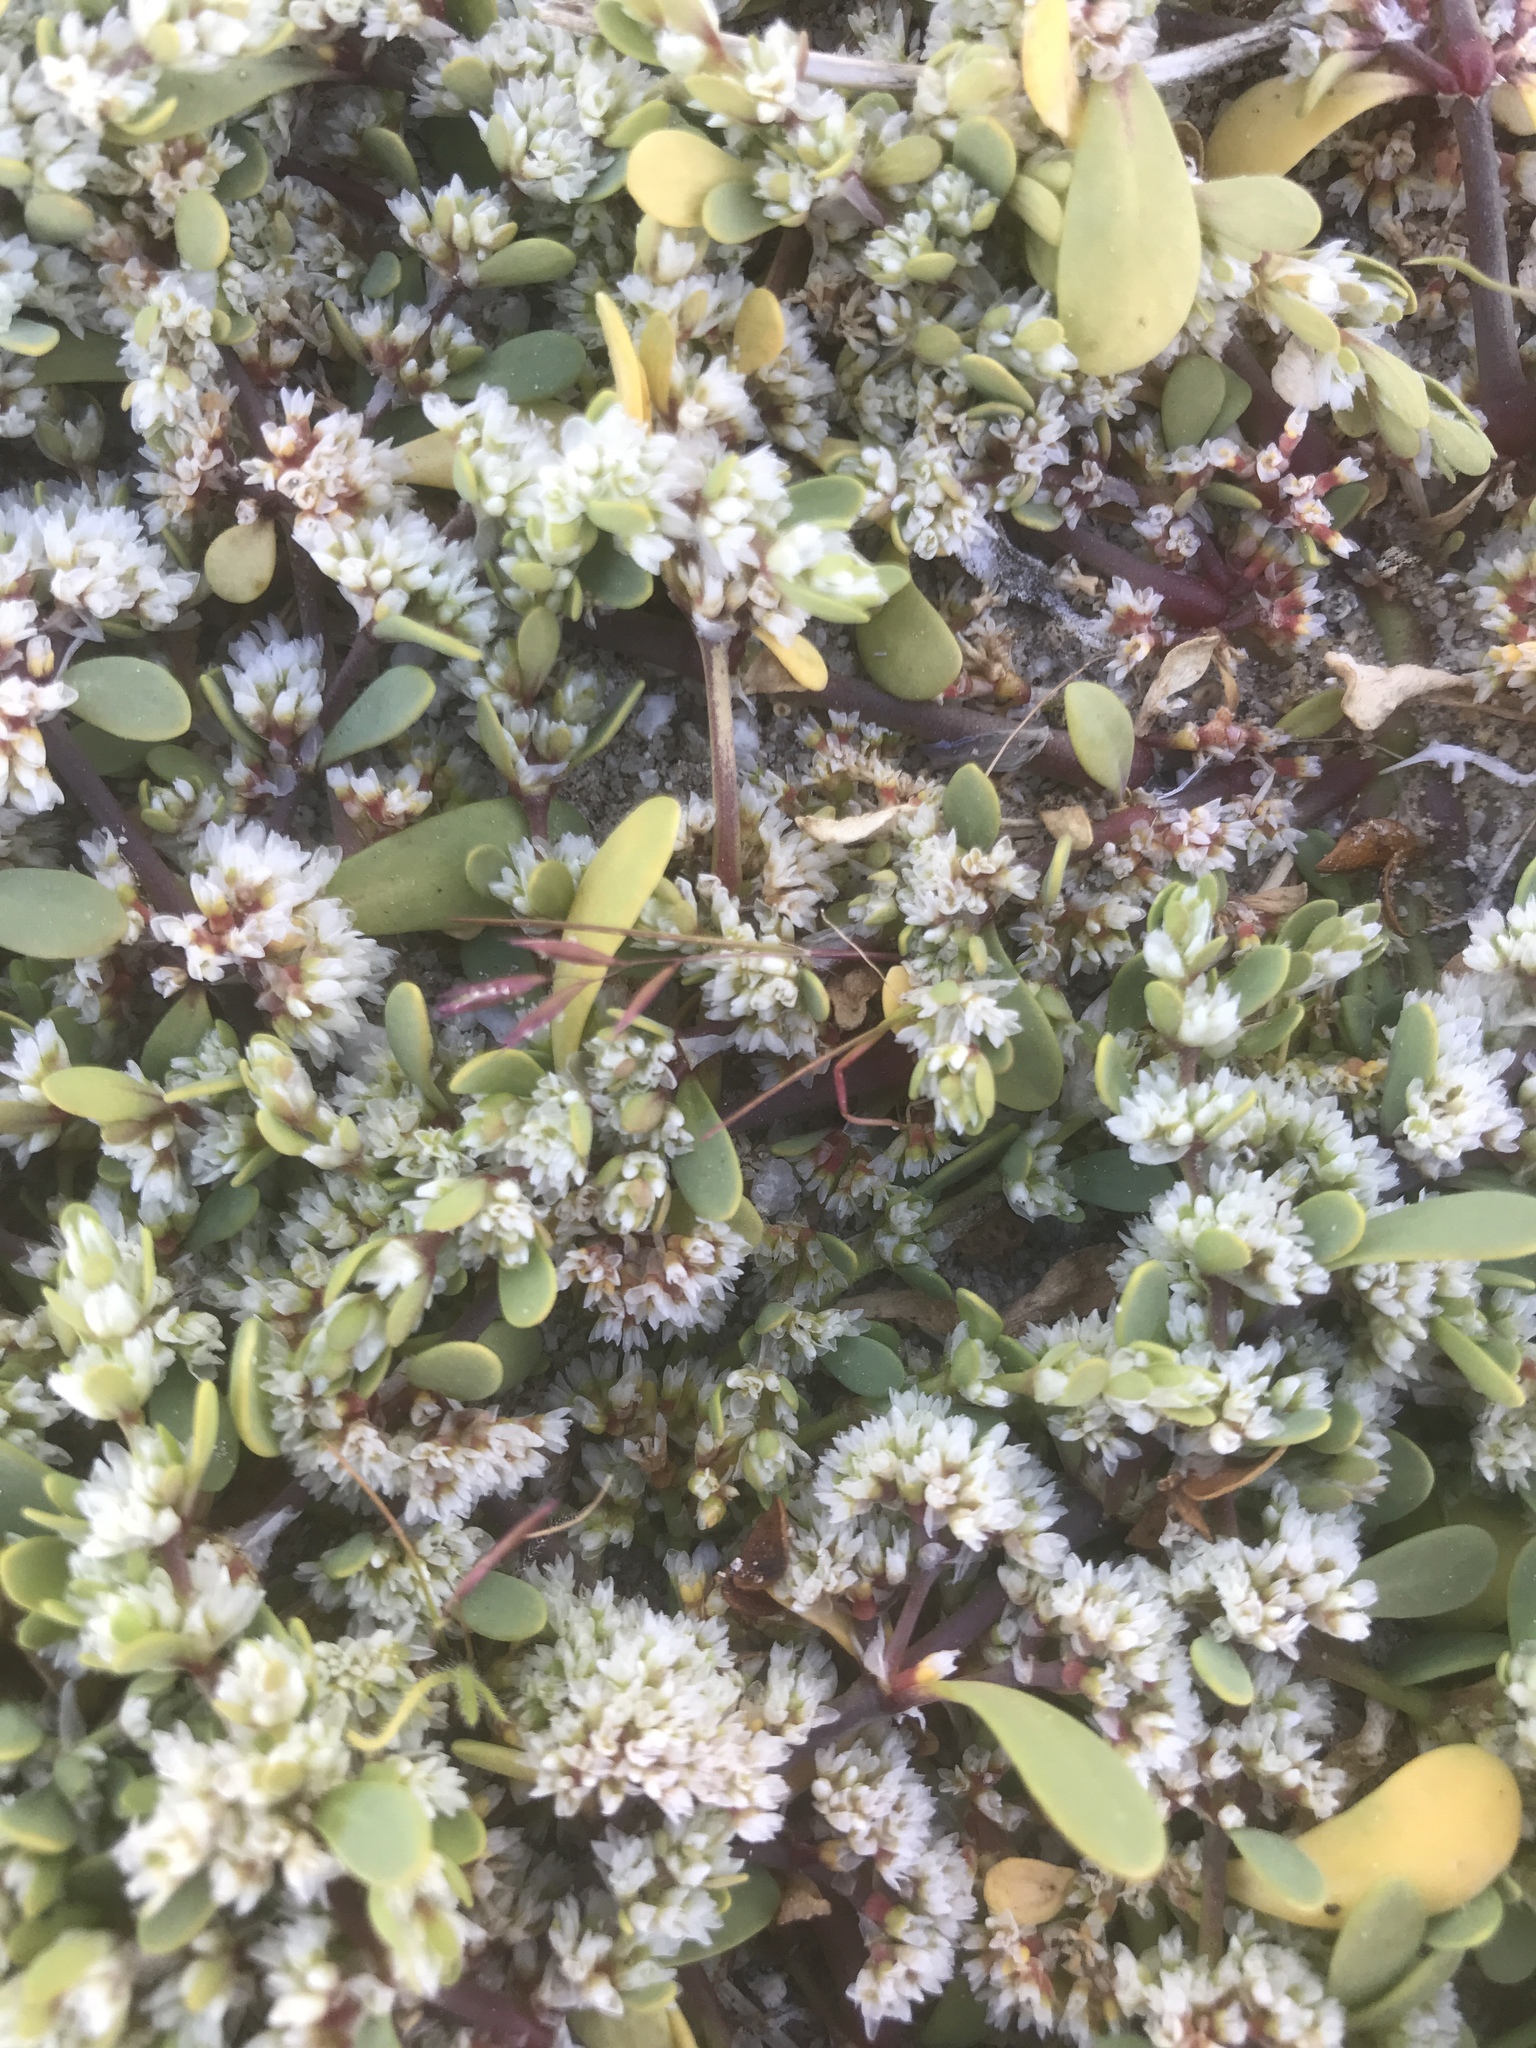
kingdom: Plantae
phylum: Tracheophyta
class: Magnoliopsida
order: Caryophyllales
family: Caryophyllaceae
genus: Achyronychia
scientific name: Achyronychia cooperi
